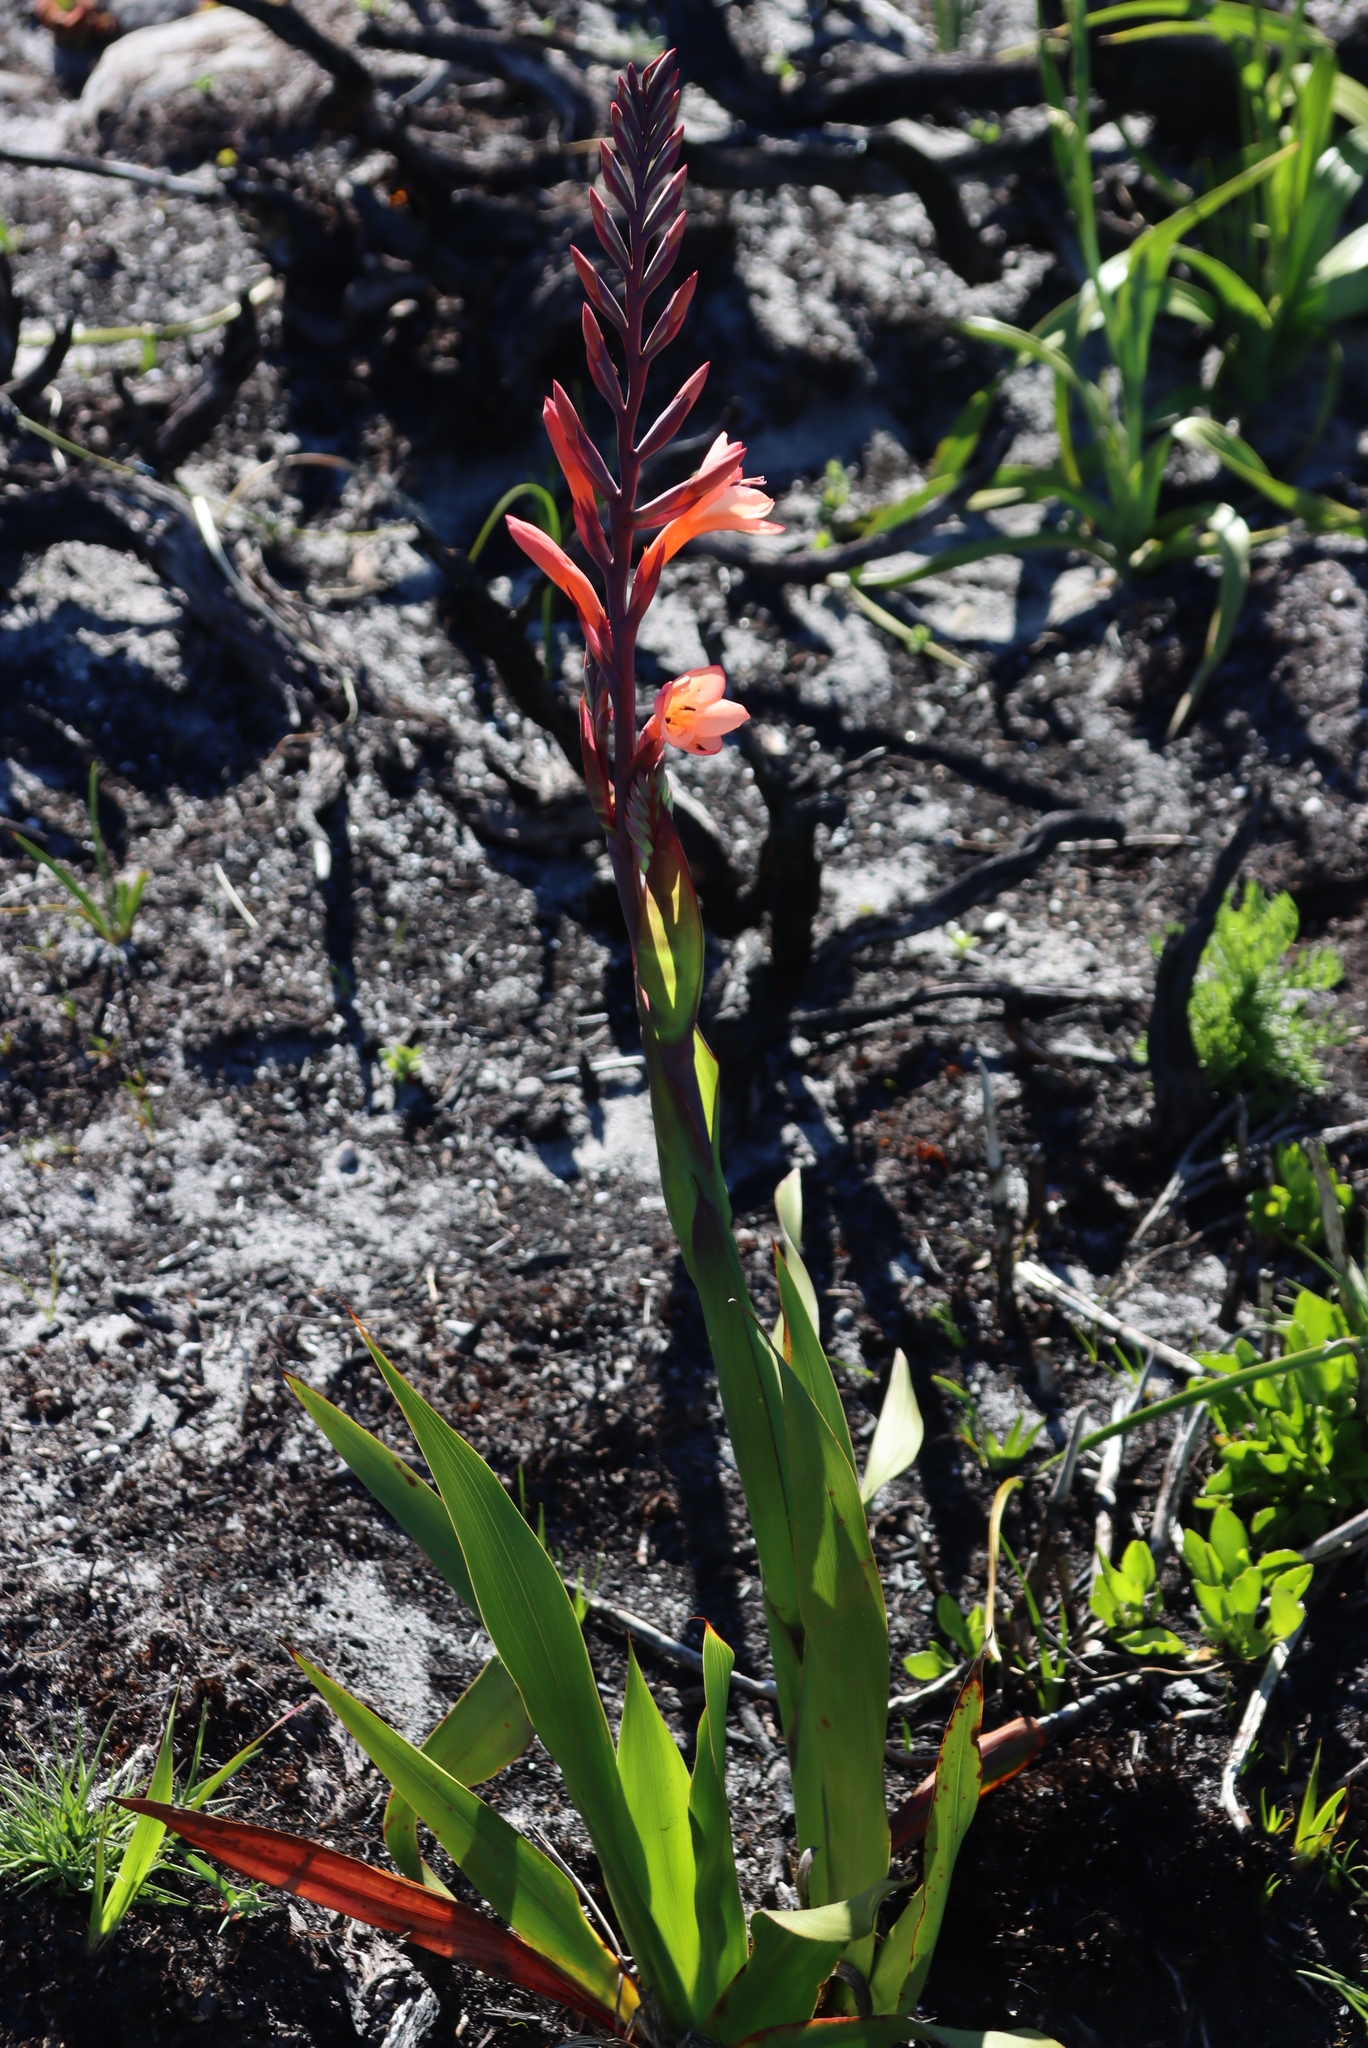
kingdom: Plantae
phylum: Tracheophyta
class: Liliopsida
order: Asparagales
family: Iridaceae
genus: Watsonia
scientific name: Watsonia tabularis
